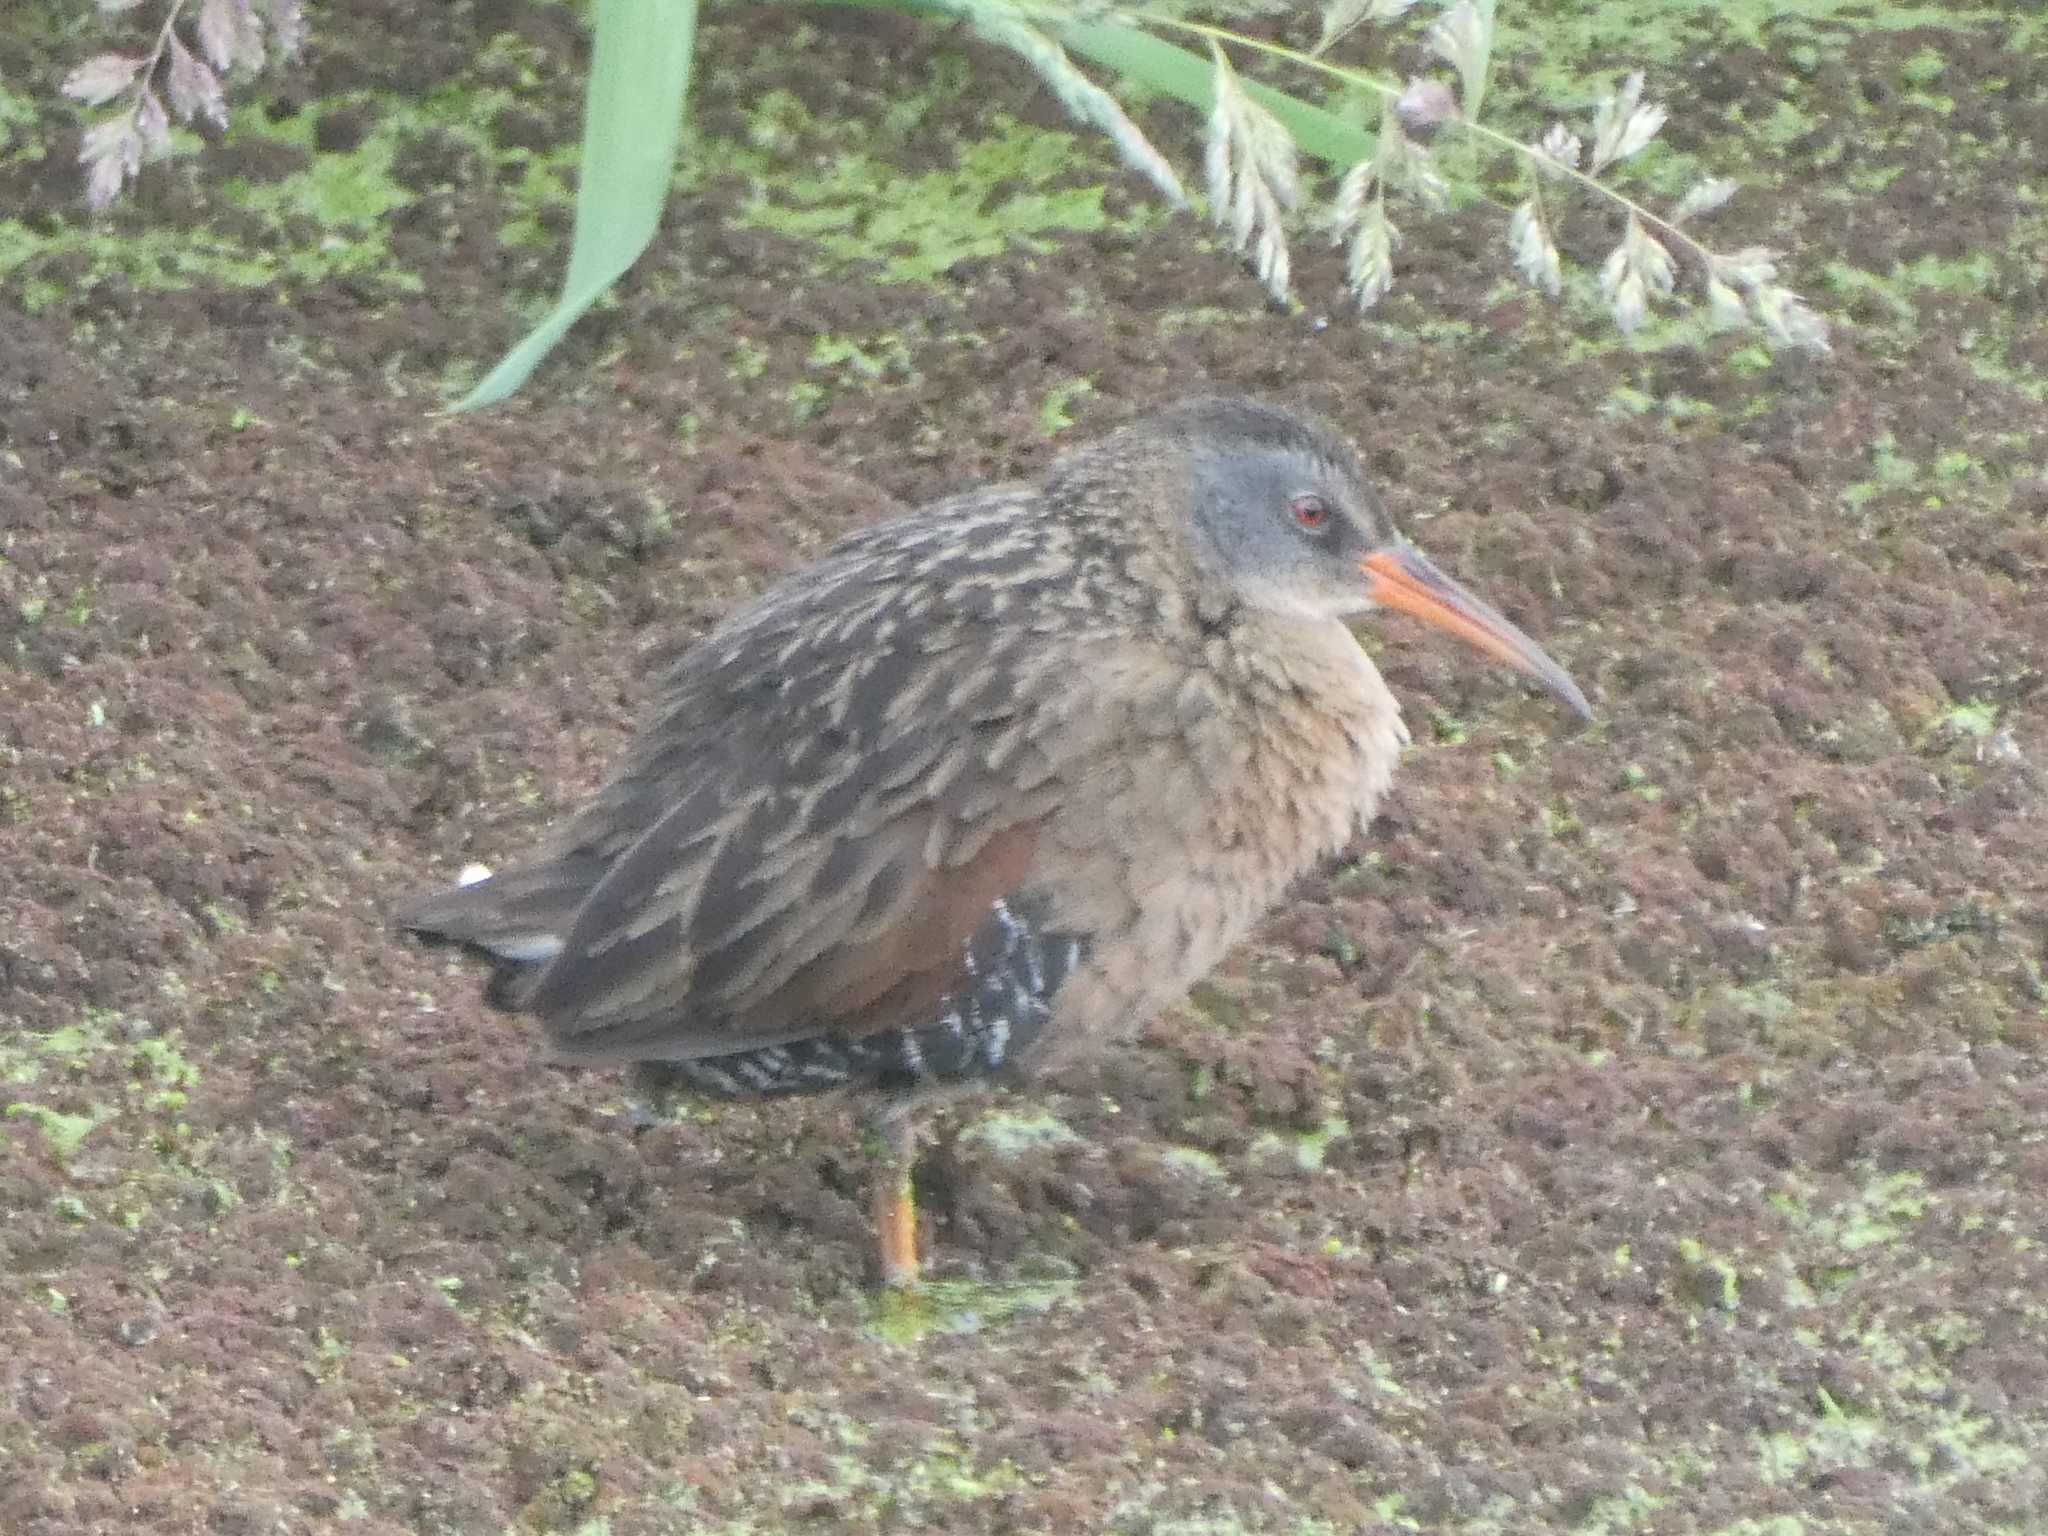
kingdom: Animalia
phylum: Chordata
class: Aves
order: Gruiformes
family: Rallidae
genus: Rallus
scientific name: Rallus limicola
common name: Virginia rail
